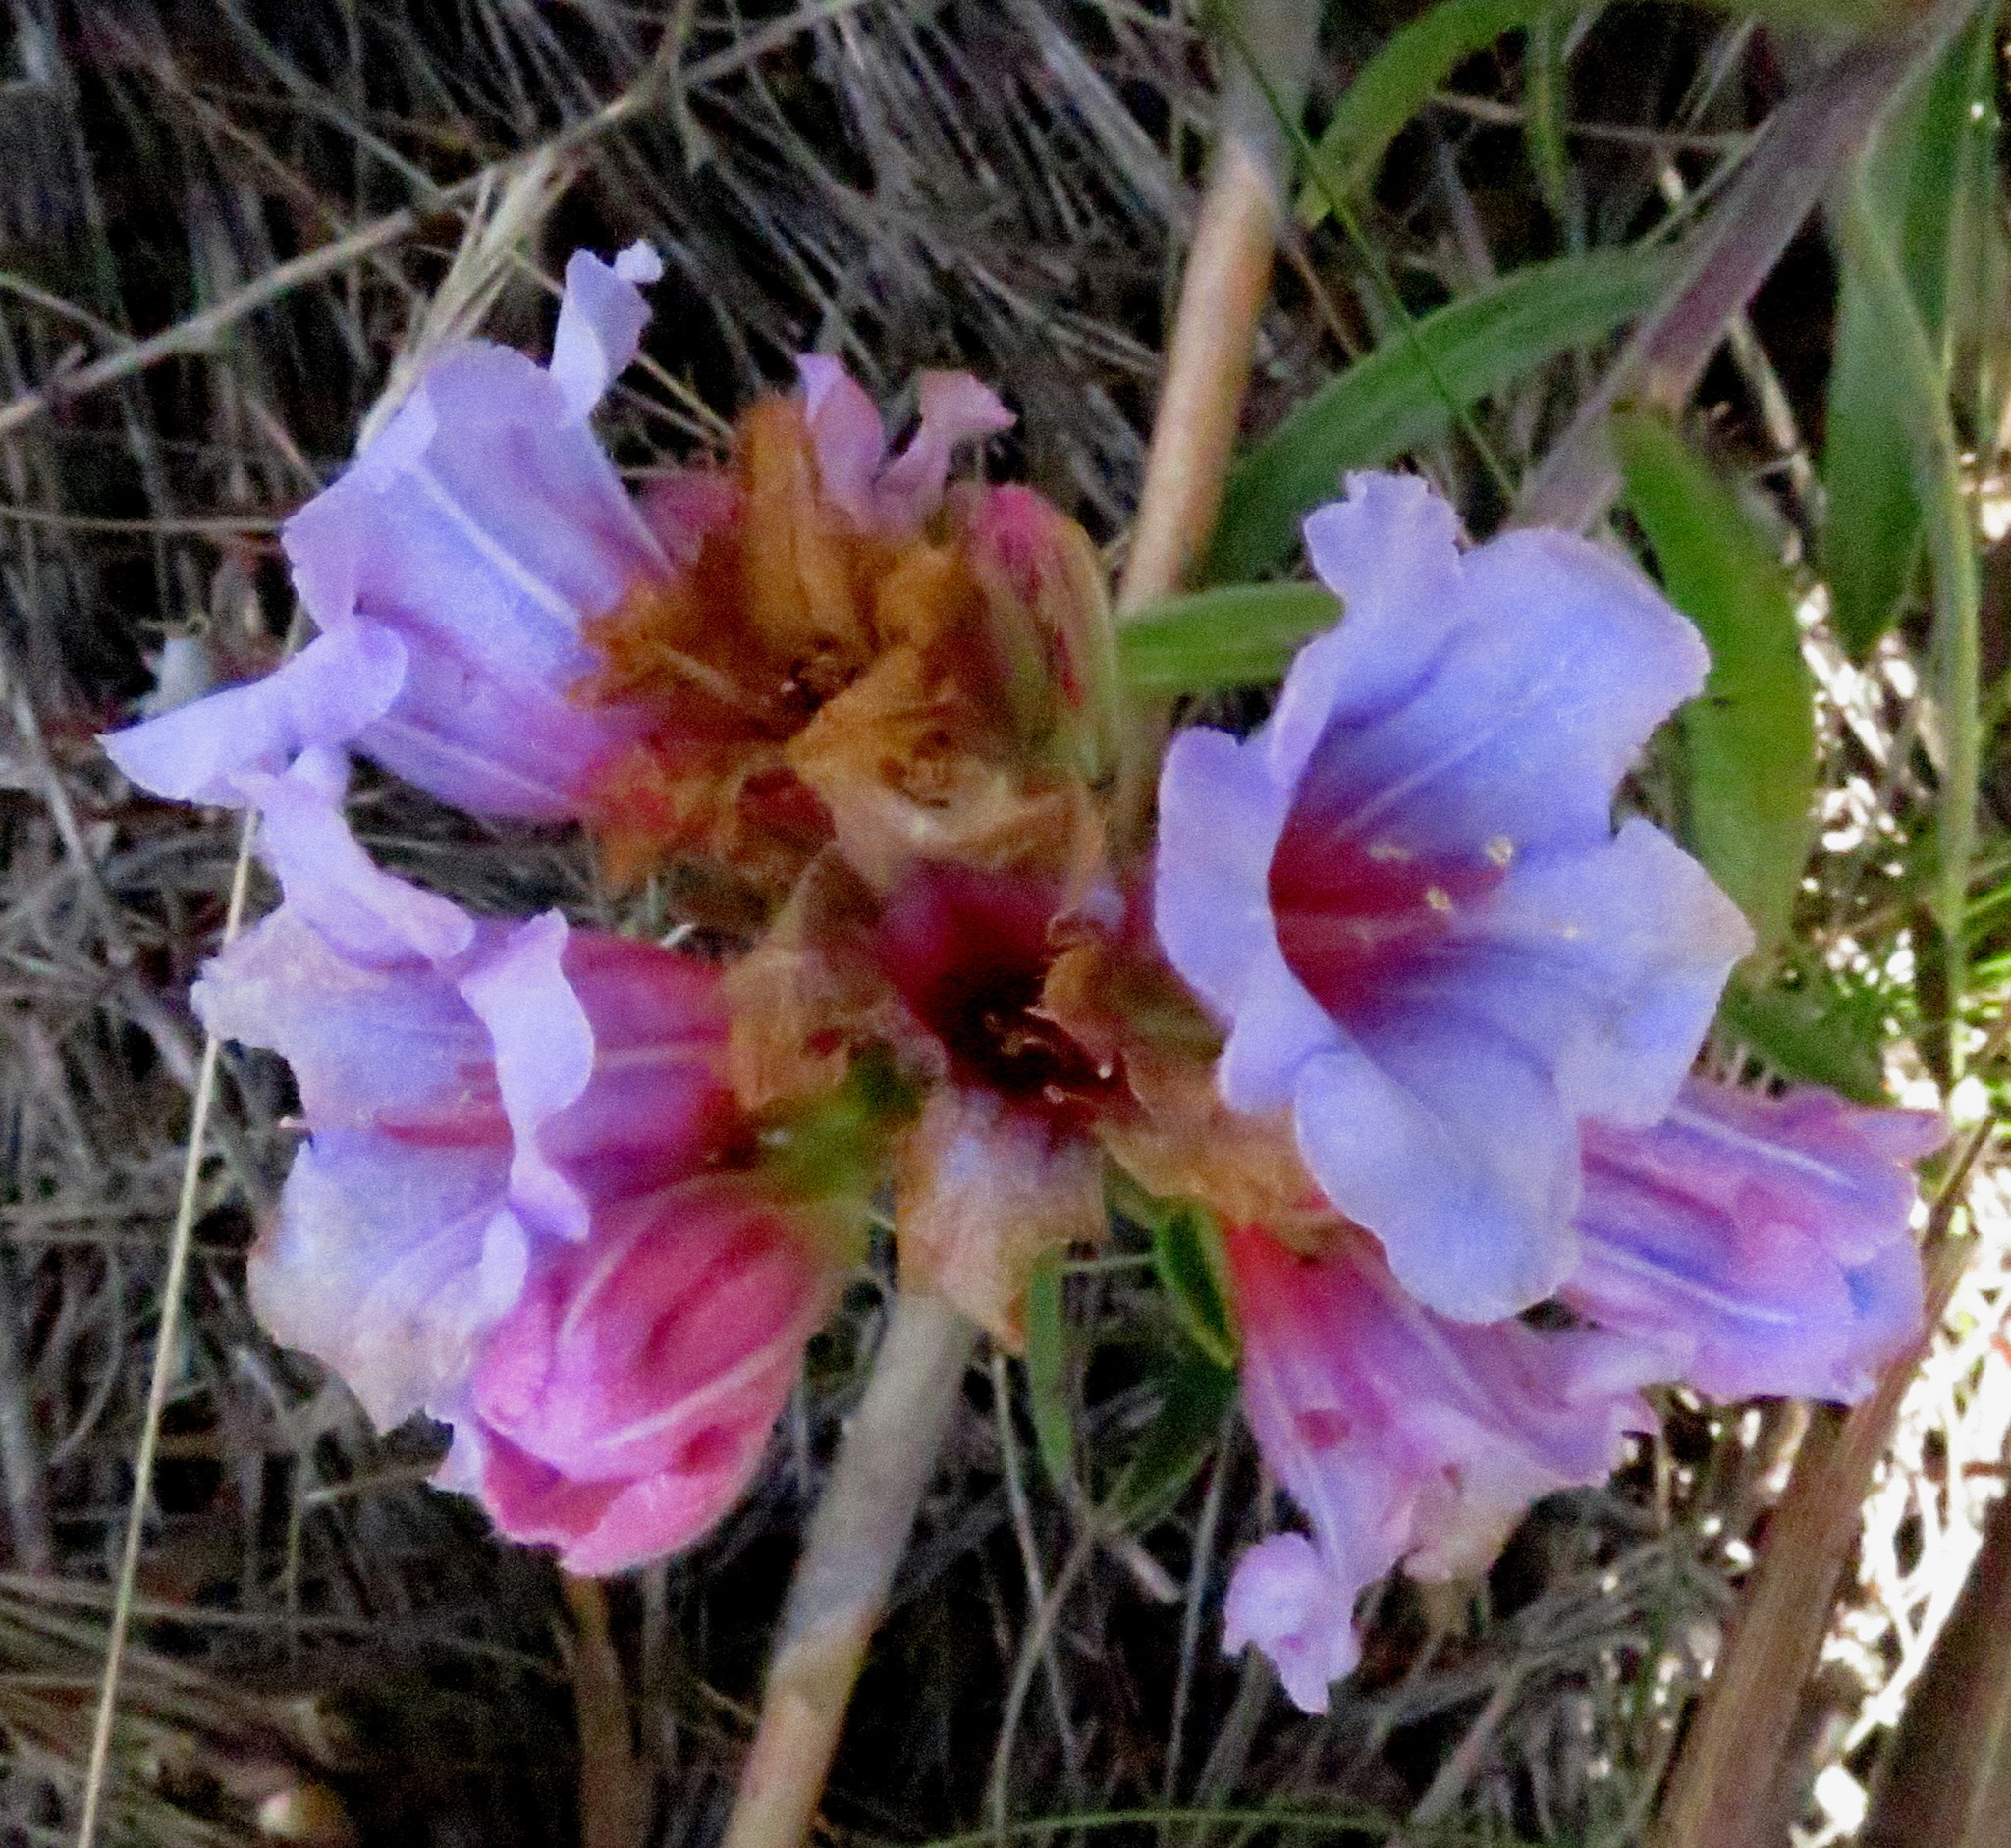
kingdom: Plantae
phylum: Tracheophyta
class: Magnoliopsida
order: Boraginales
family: Boraginaceae
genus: Lobostemon
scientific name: Lobostemon fruticosus
